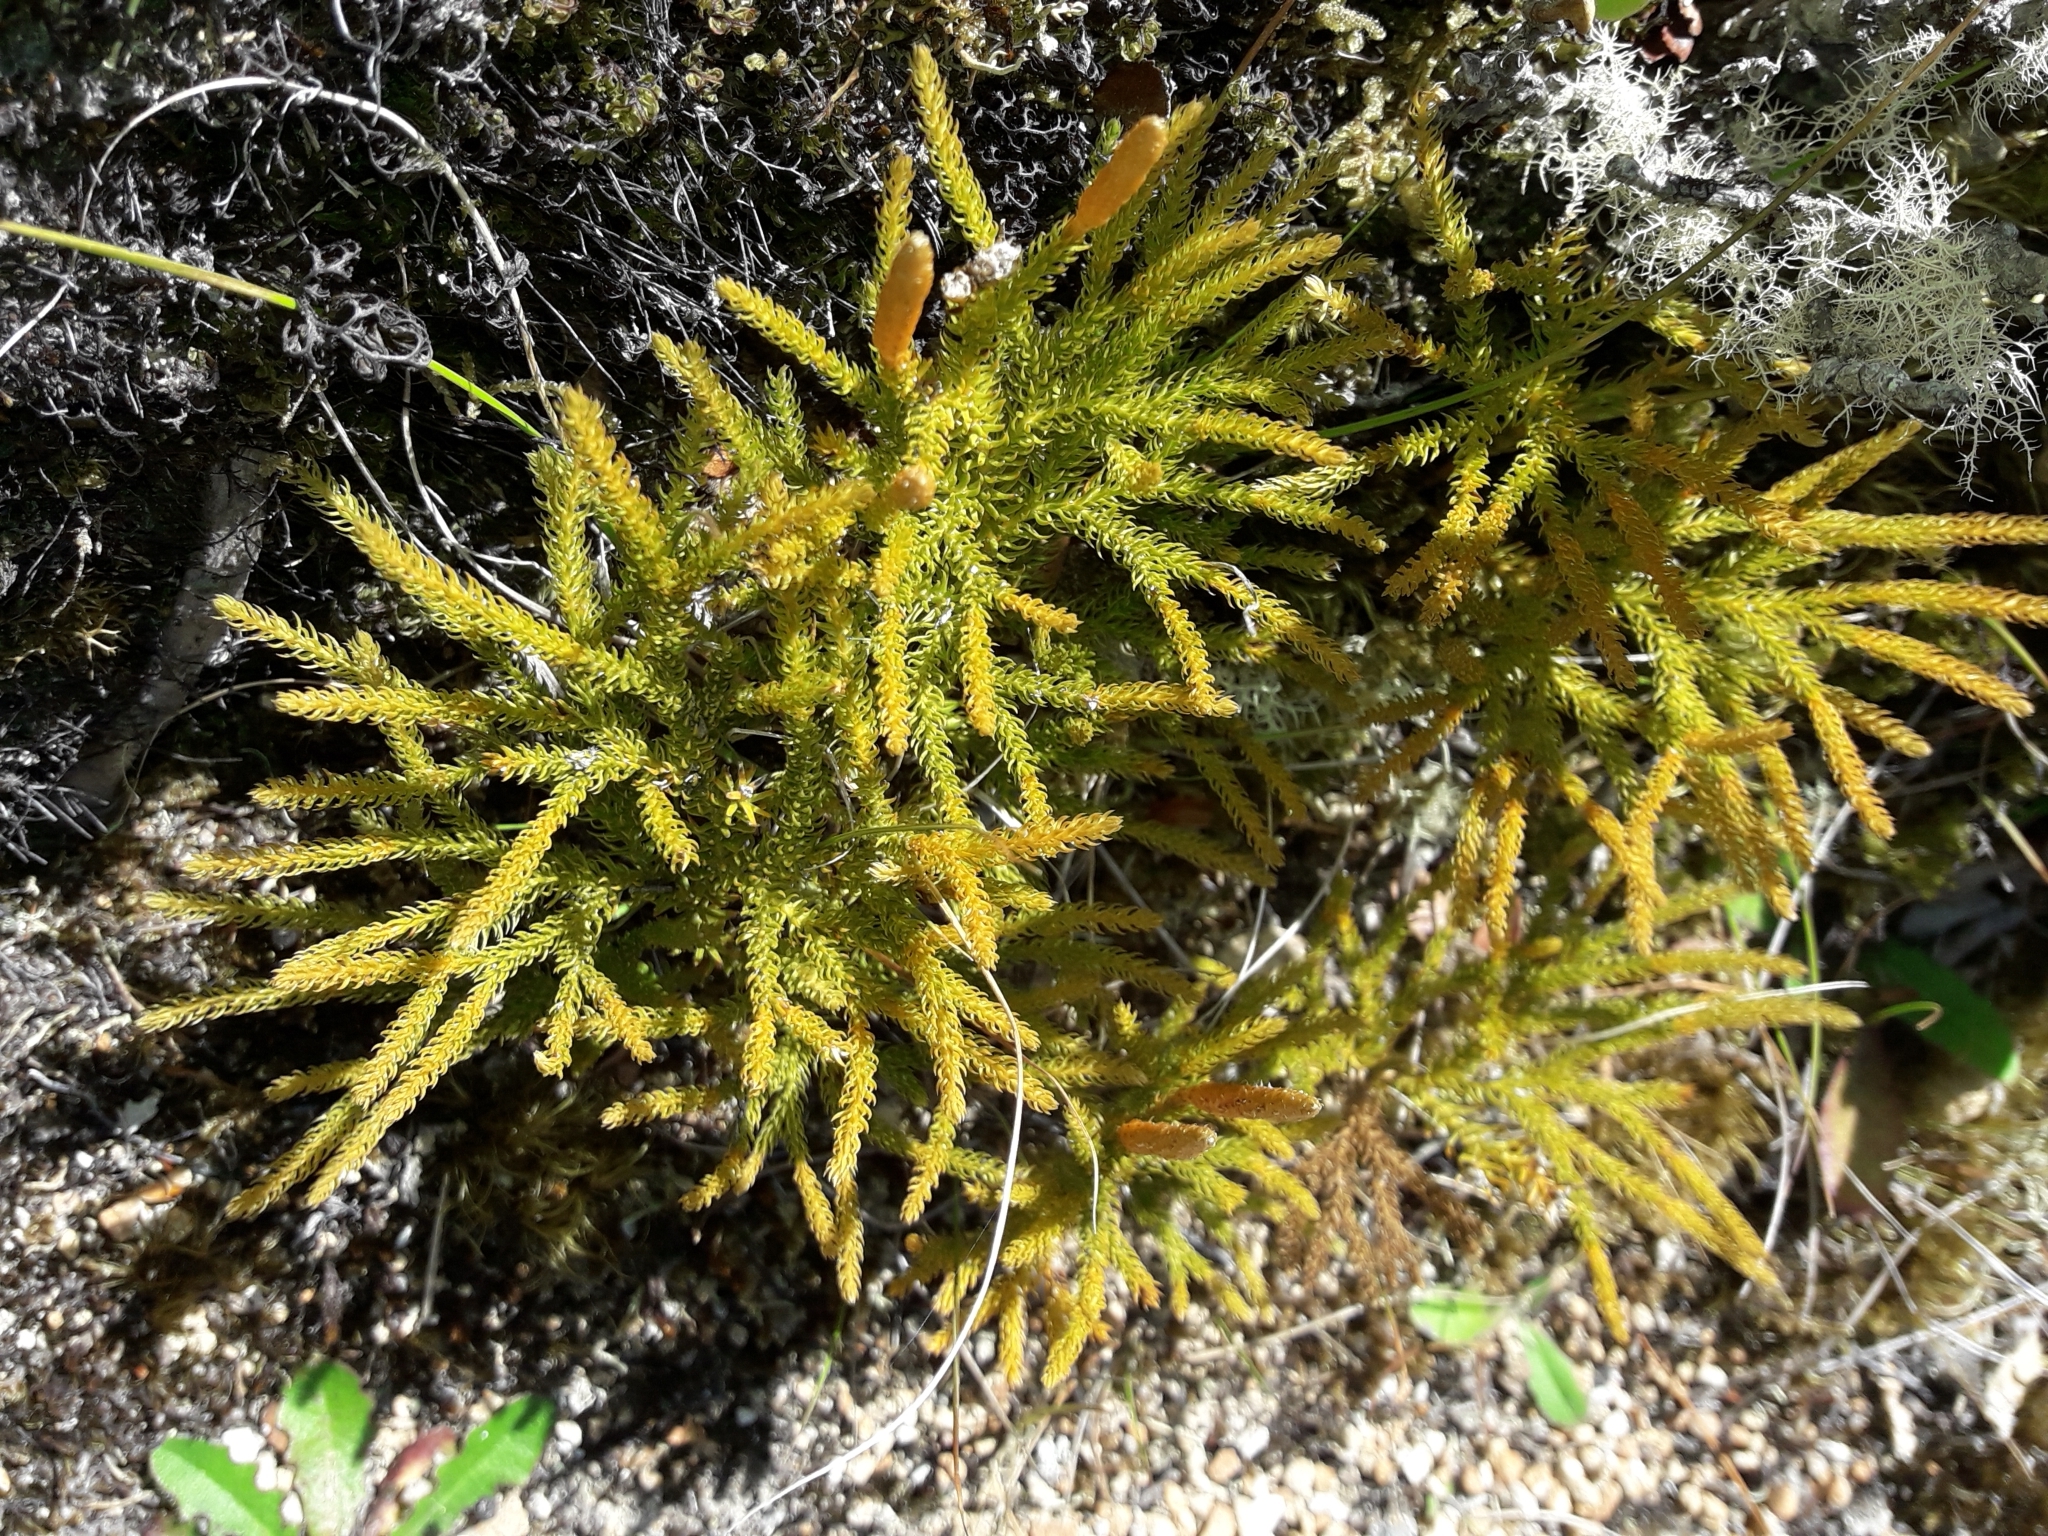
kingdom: Plantae
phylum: Tracheophyta
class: Lycopodiopsida
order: Lycopodiales
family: Lycopodiaceae
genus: Austrolycopodium
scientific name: Austrolycopodium fastigiatum
